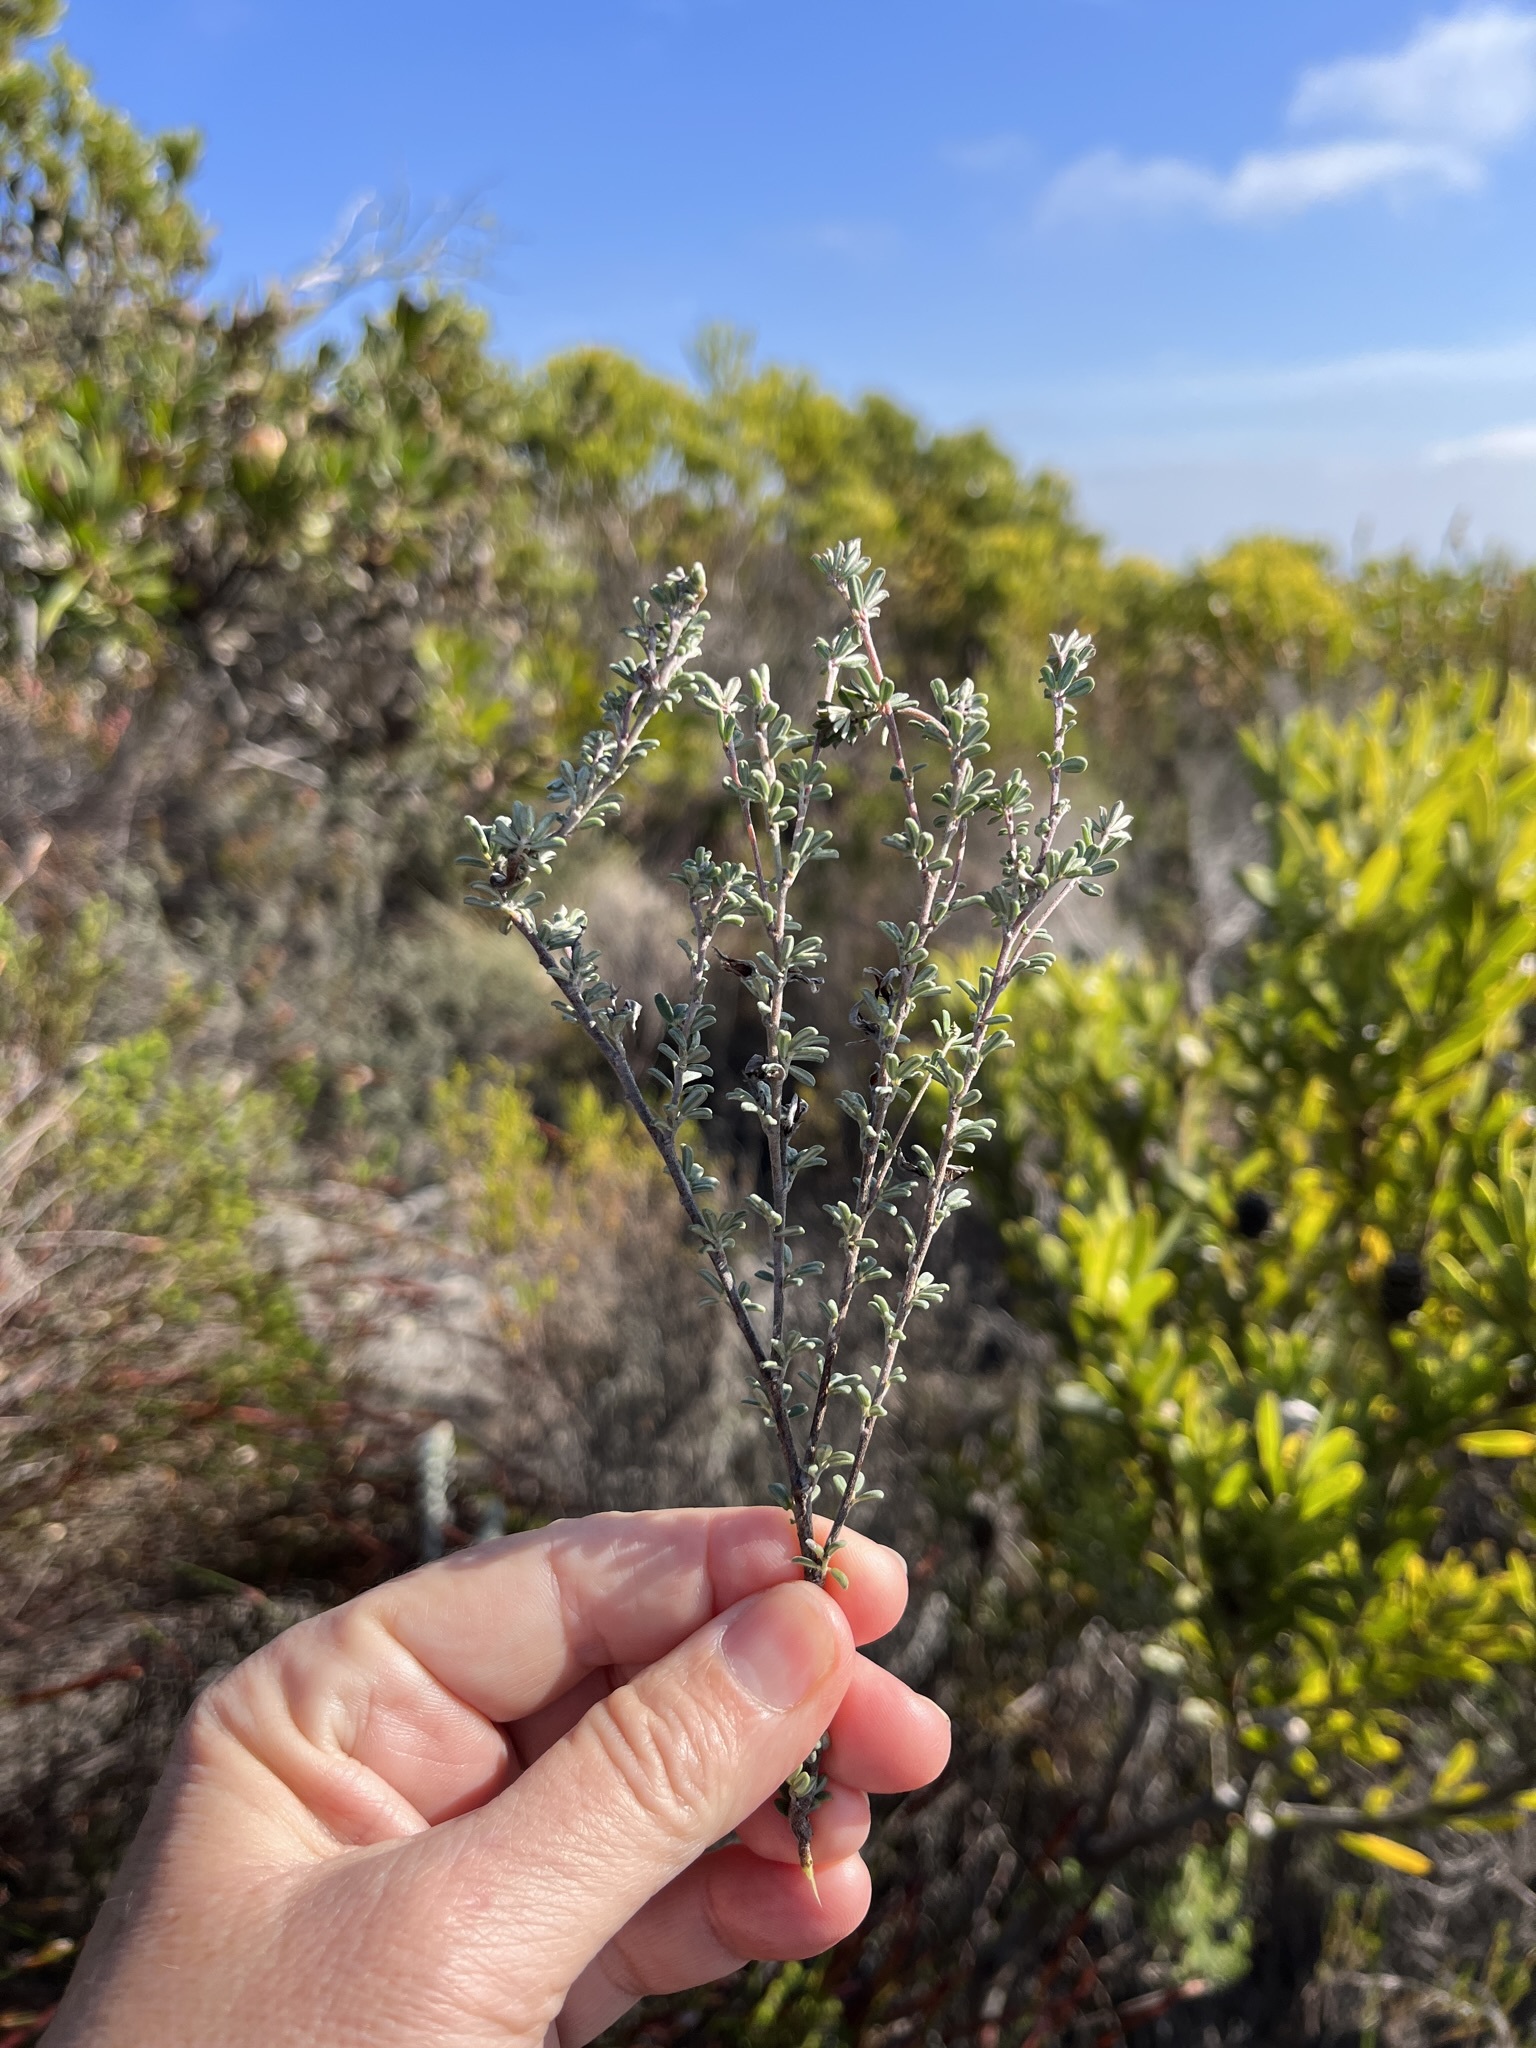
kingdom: Plantae
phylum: Tracheophyta
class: Magnoliopsida
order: Fabales
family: Fabaceae
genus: Indigofera
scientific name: Indigofera
